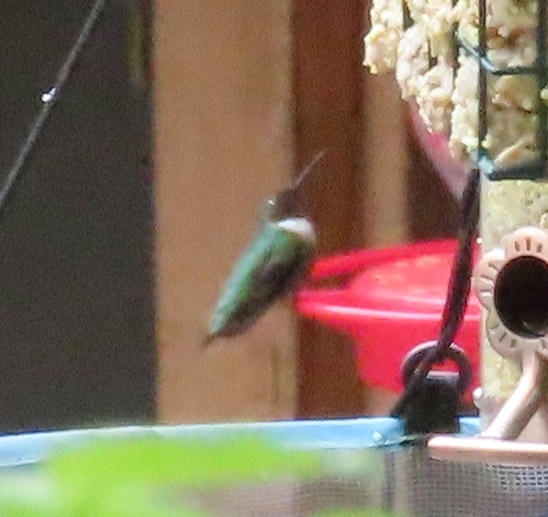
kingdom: Animalia
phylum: Chordata
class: Aves
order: Apodiformes
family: Trochilidae
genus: Archilochus
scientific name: Archilochus colubris
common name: Ruby-throated hummingbird
